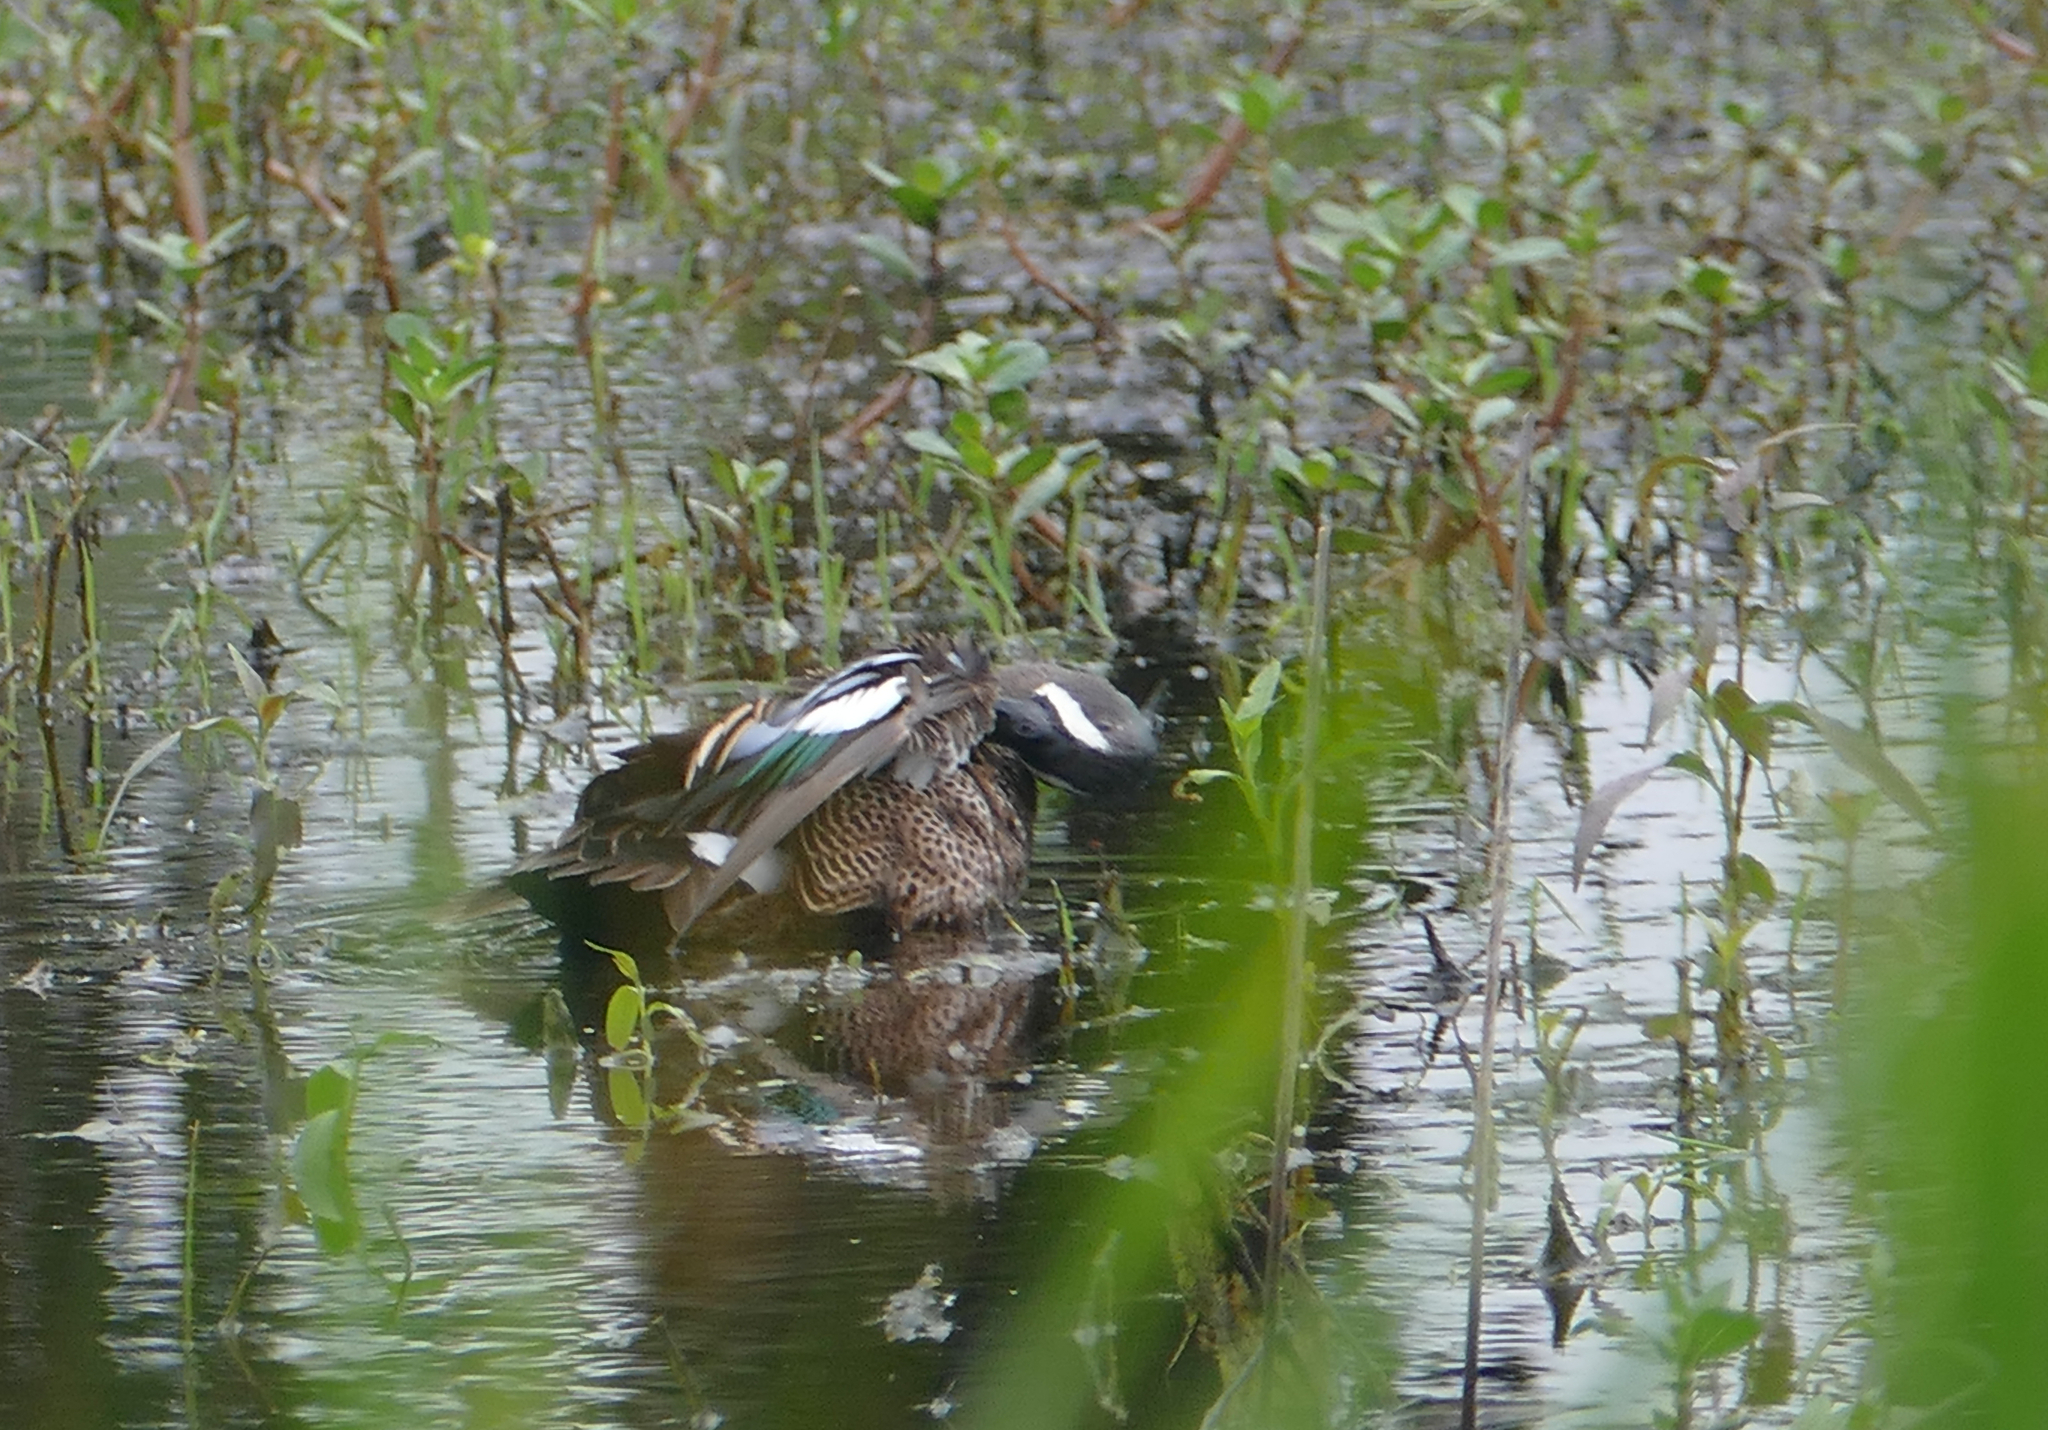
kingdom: Animalia
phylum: Chordata
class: Aves
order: Anseriformes
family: Anatidae
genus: Spatula
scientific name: Spatula discors
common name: Blue-winged teal
